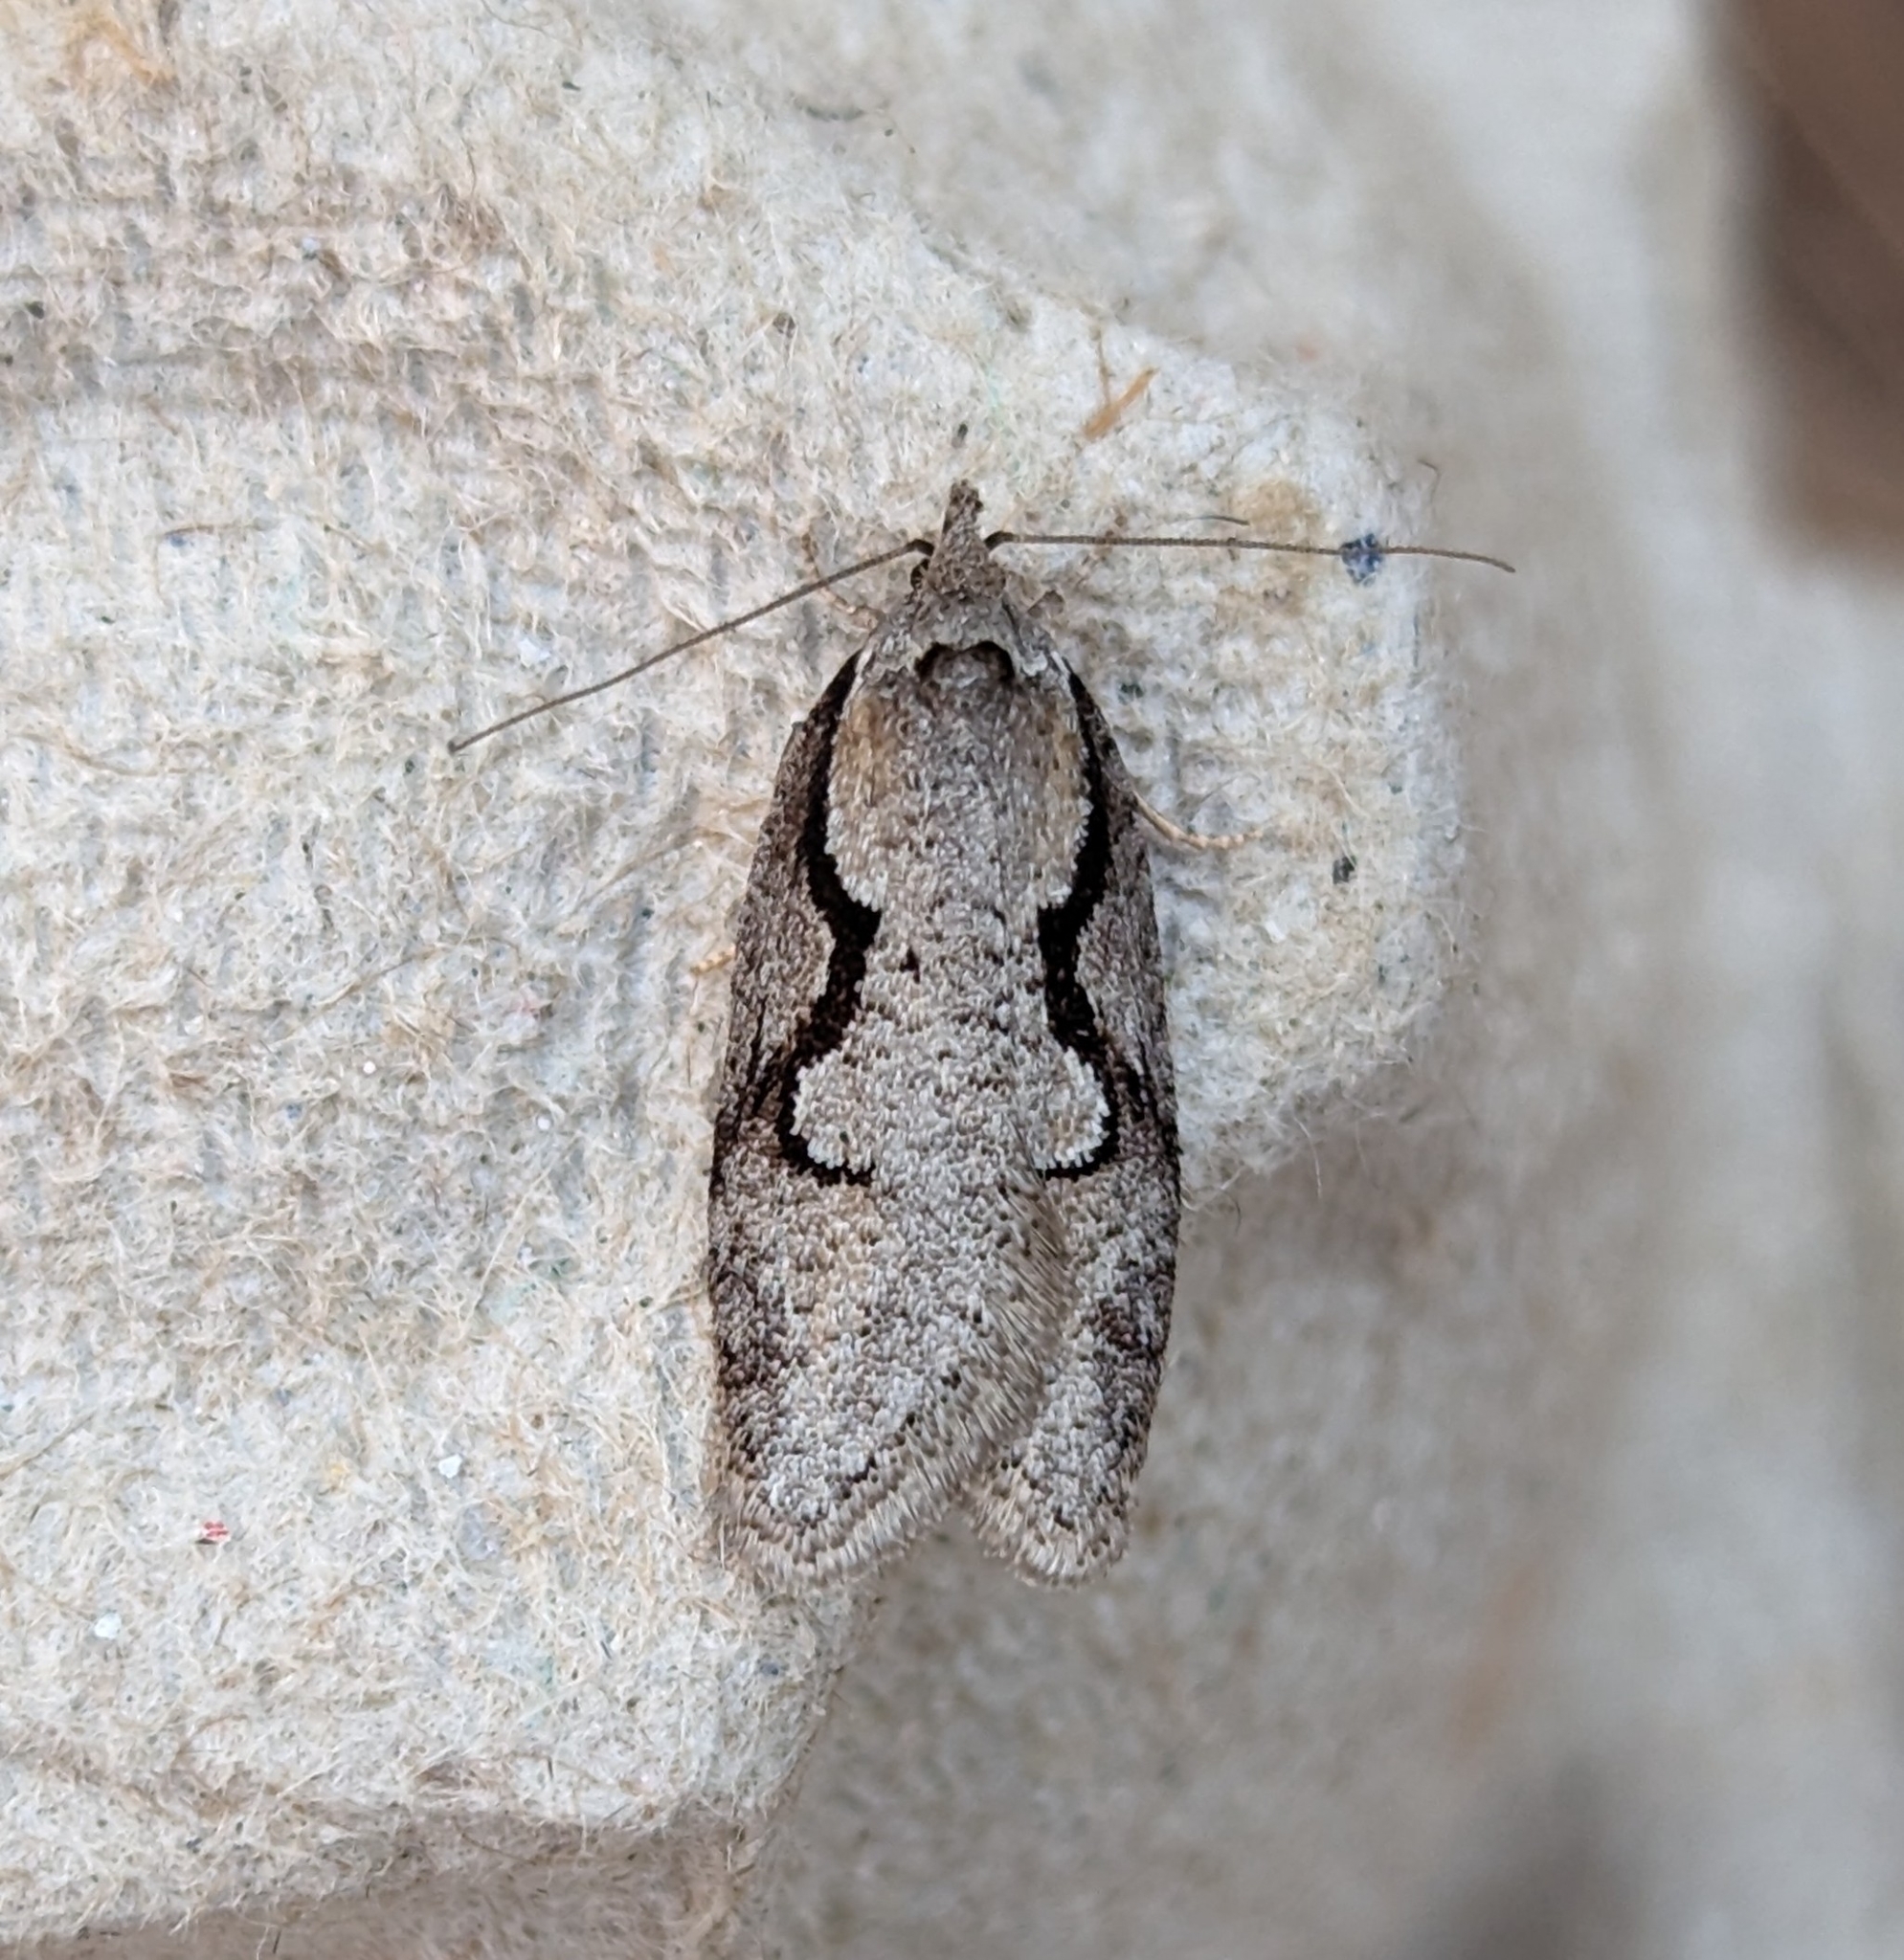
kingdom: Animalia
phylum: Arthropoda
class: Insecta
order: Lepidoptera
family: Depressariidae
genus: Semioscopis
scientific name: Semioscopis packardella
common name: Packard's concealer moth
